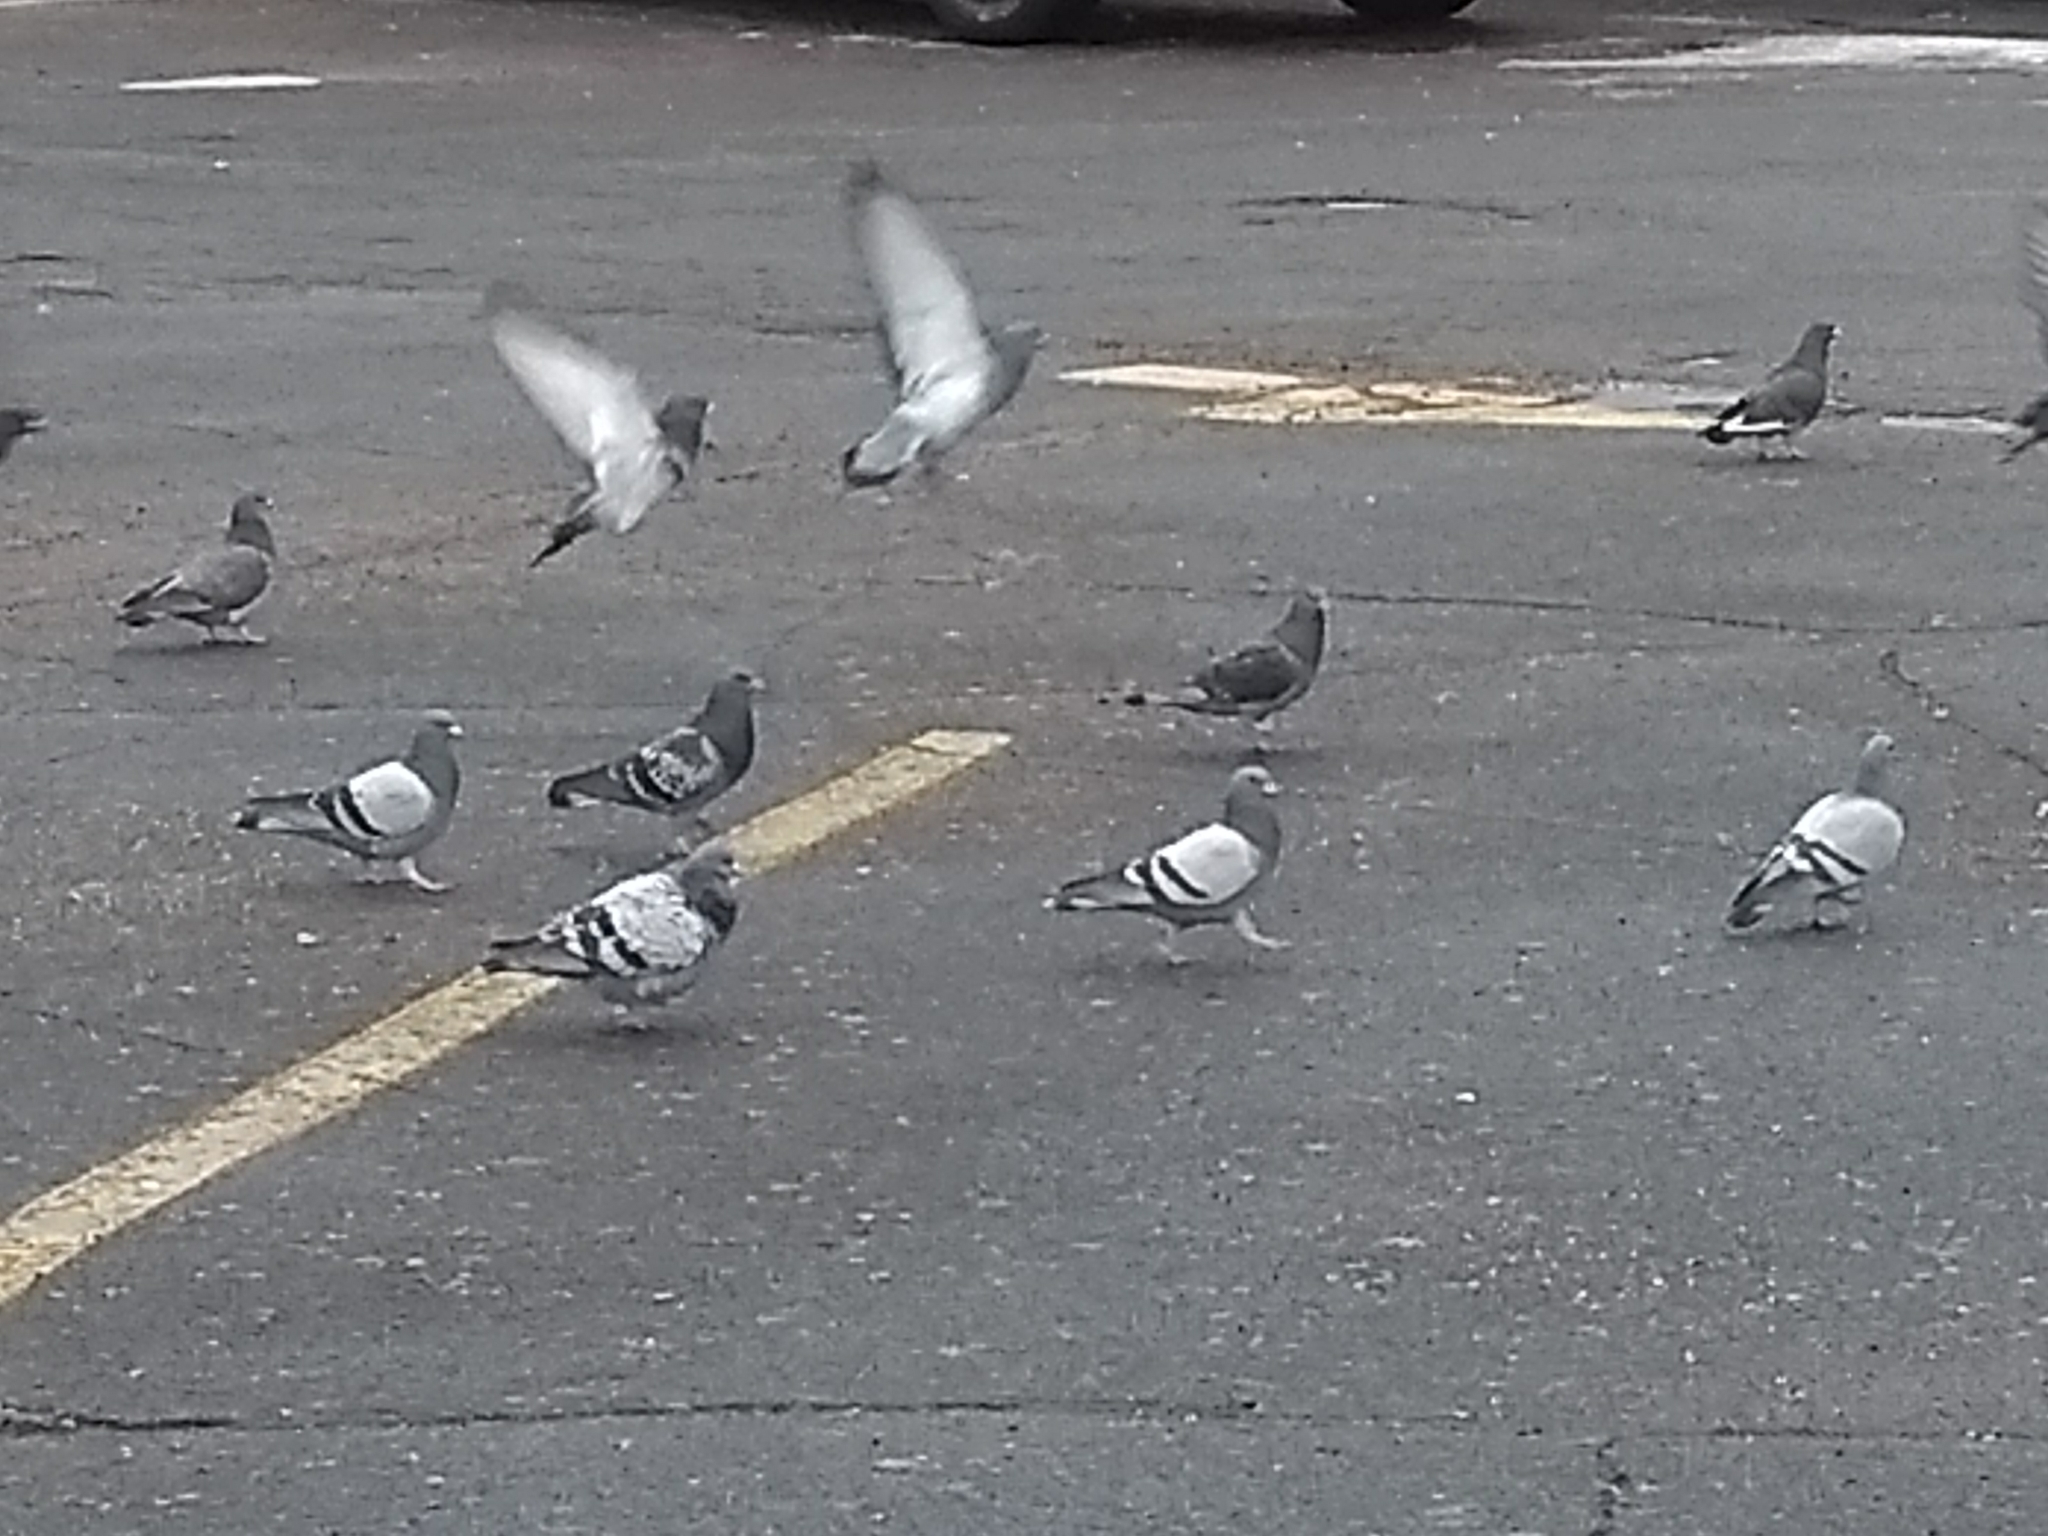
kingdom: Animalia
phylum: Chordata
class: Aves
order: Columbiformes
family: Columbidae
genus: Columba
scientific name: Columba livia
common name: Rock pigeon
